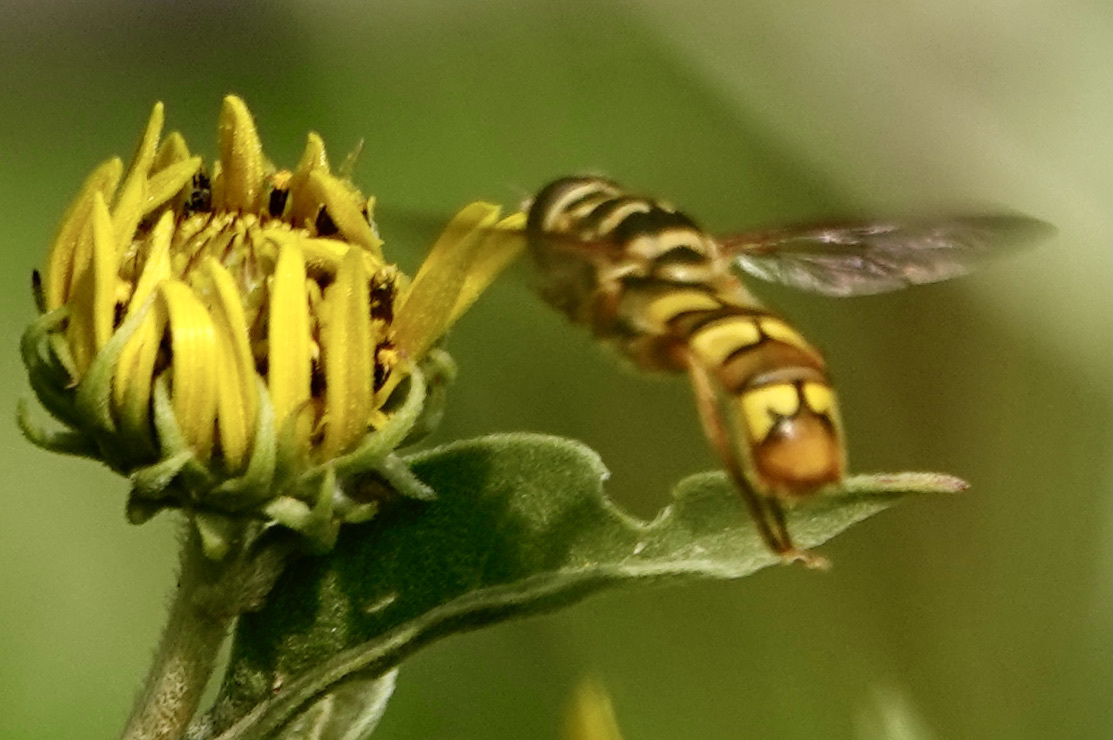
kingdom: Animalia
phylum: Arthropoda
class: Insecta
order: Diptera
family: Syrphidae
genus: Milesia
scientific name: Milesia virginiensis
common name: Virginia giant
